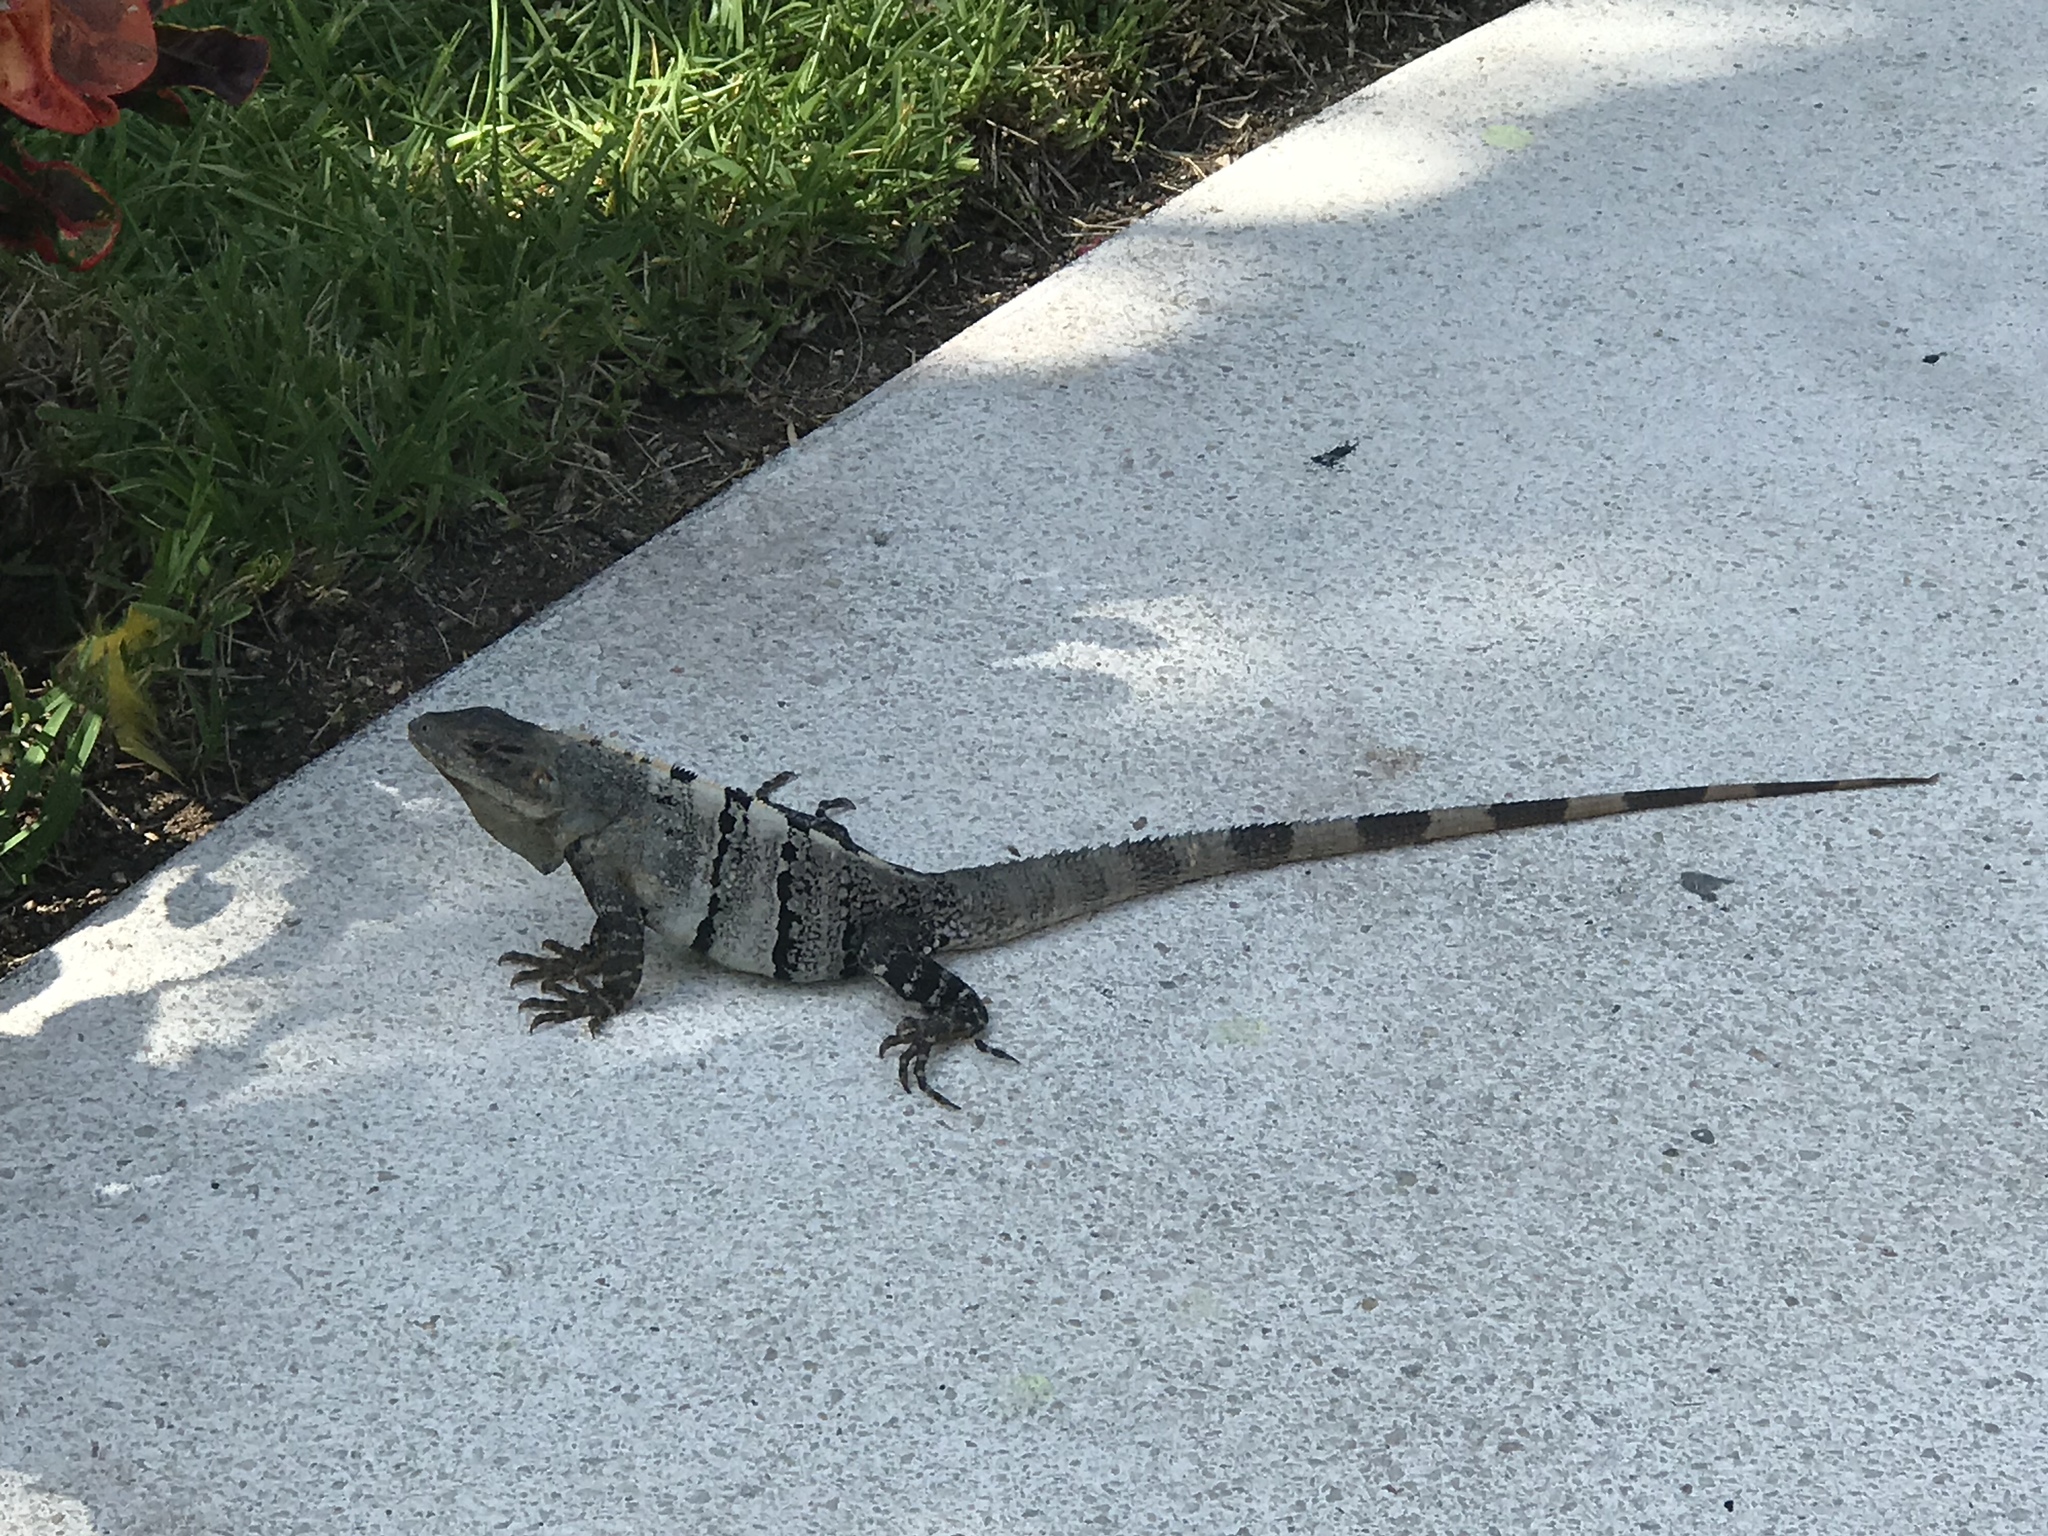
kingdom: Animalia
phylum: Chordata
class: Squamata
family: Iguanidae
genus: Ctenosaura
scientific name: Ctenosaura similis
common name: Black spiny-tailed iguana
